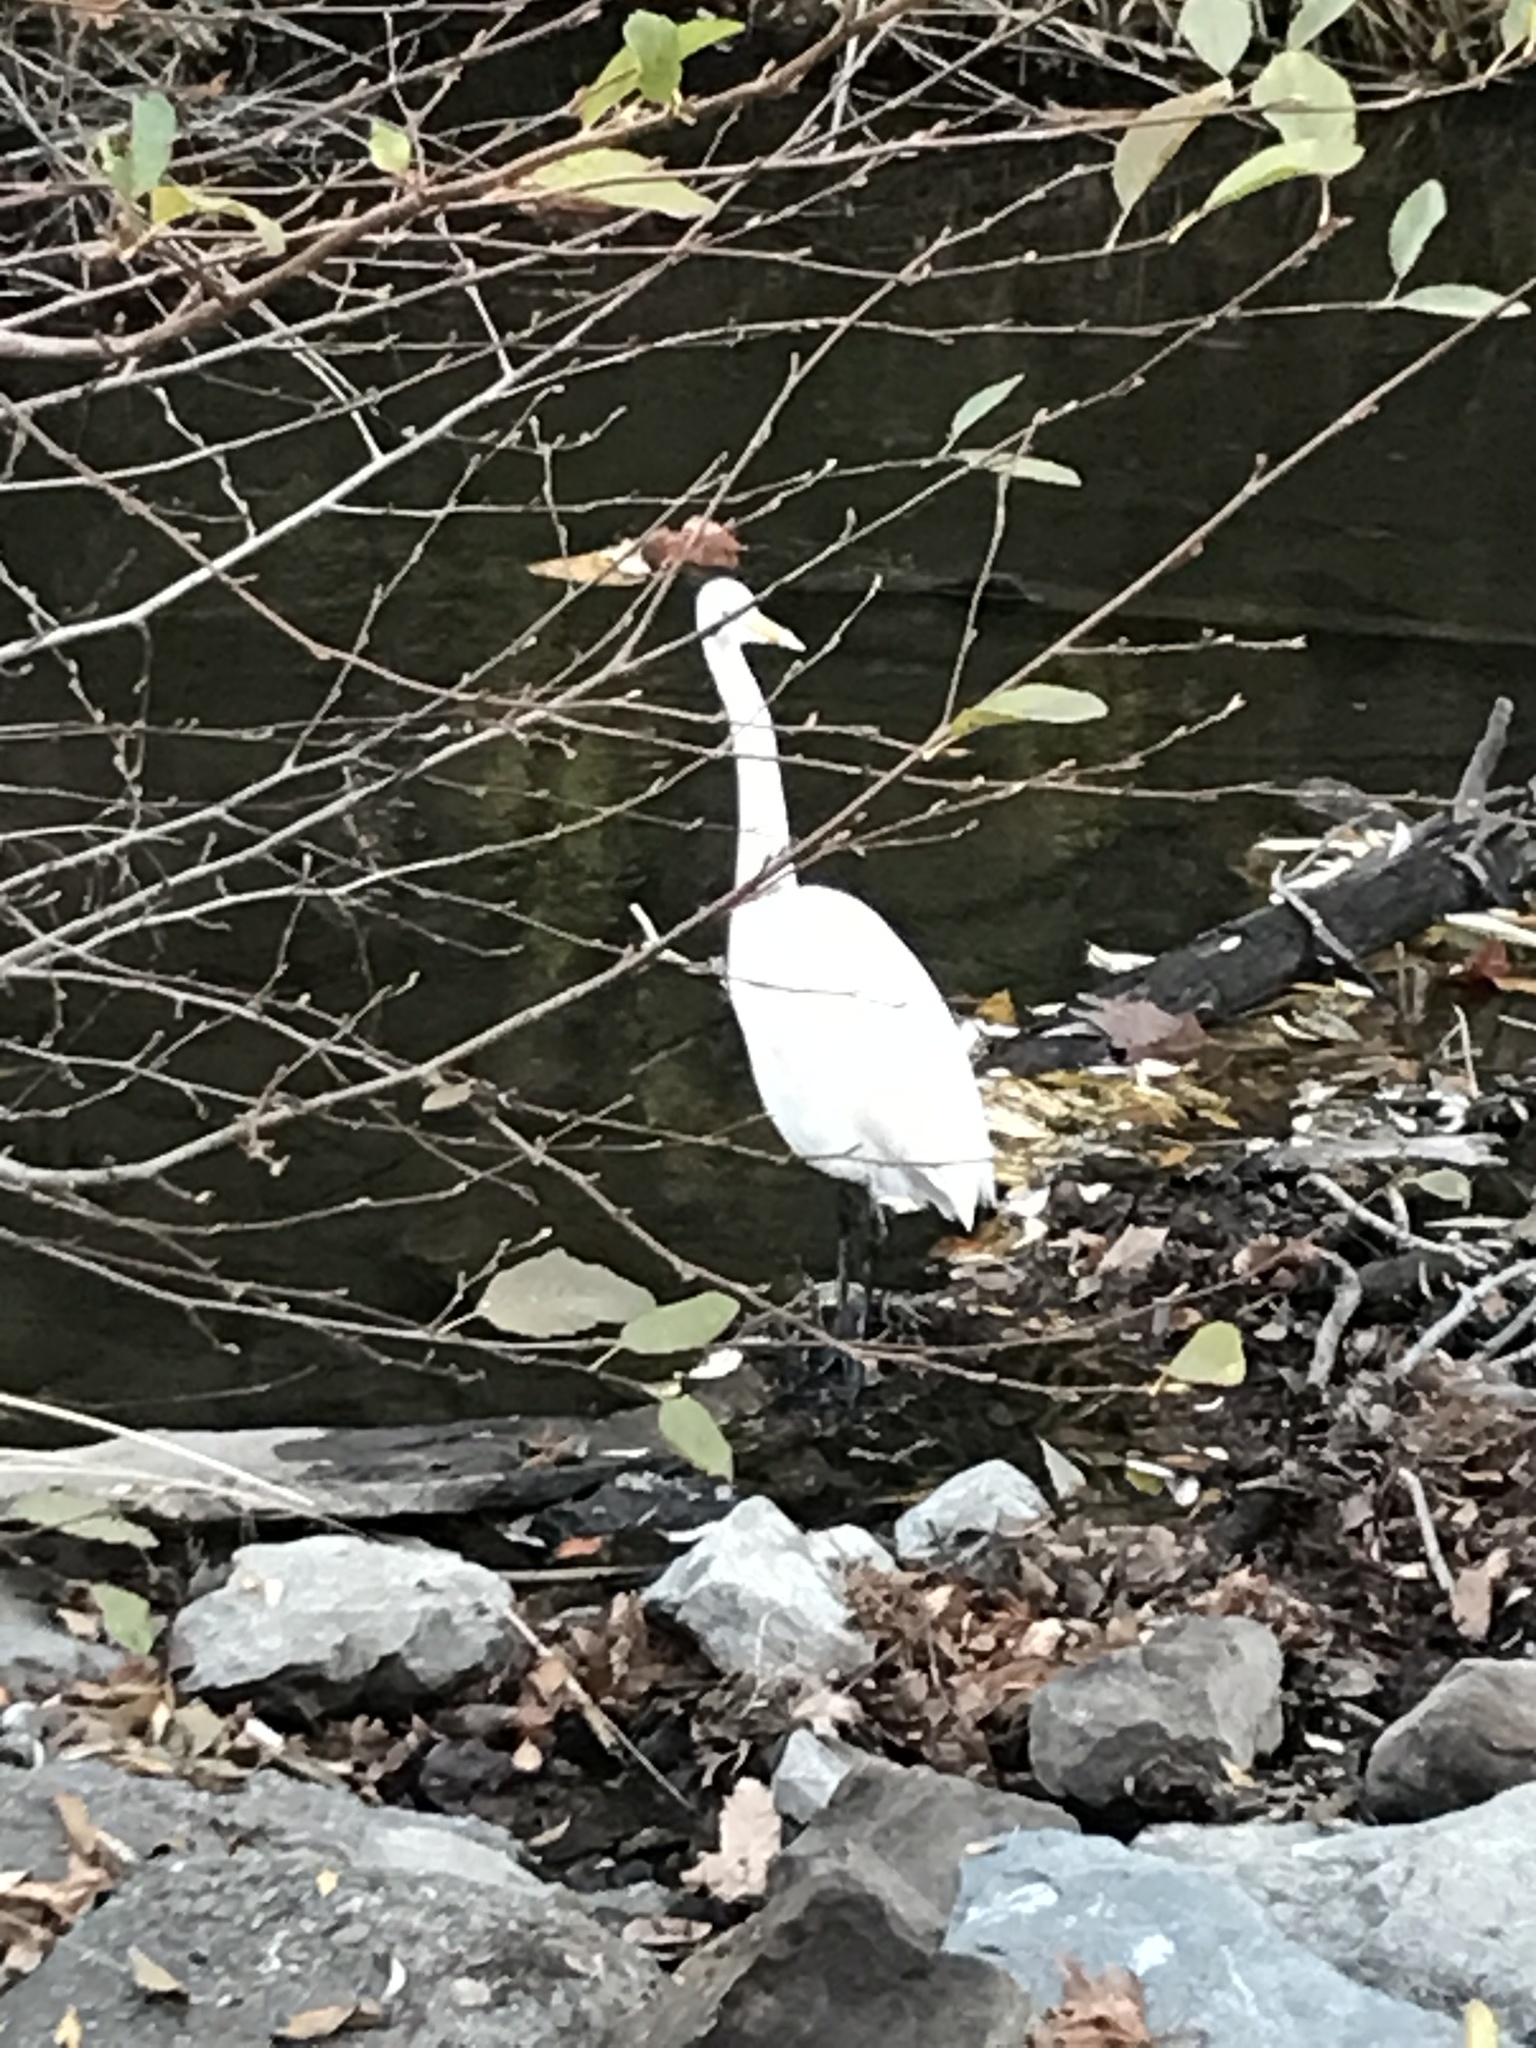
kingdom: Animalia
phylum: Chordata
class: Aves
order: Pelecaniformes
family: Ardeidae
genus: Ardea
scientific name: Ardea alba
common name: Great egret
